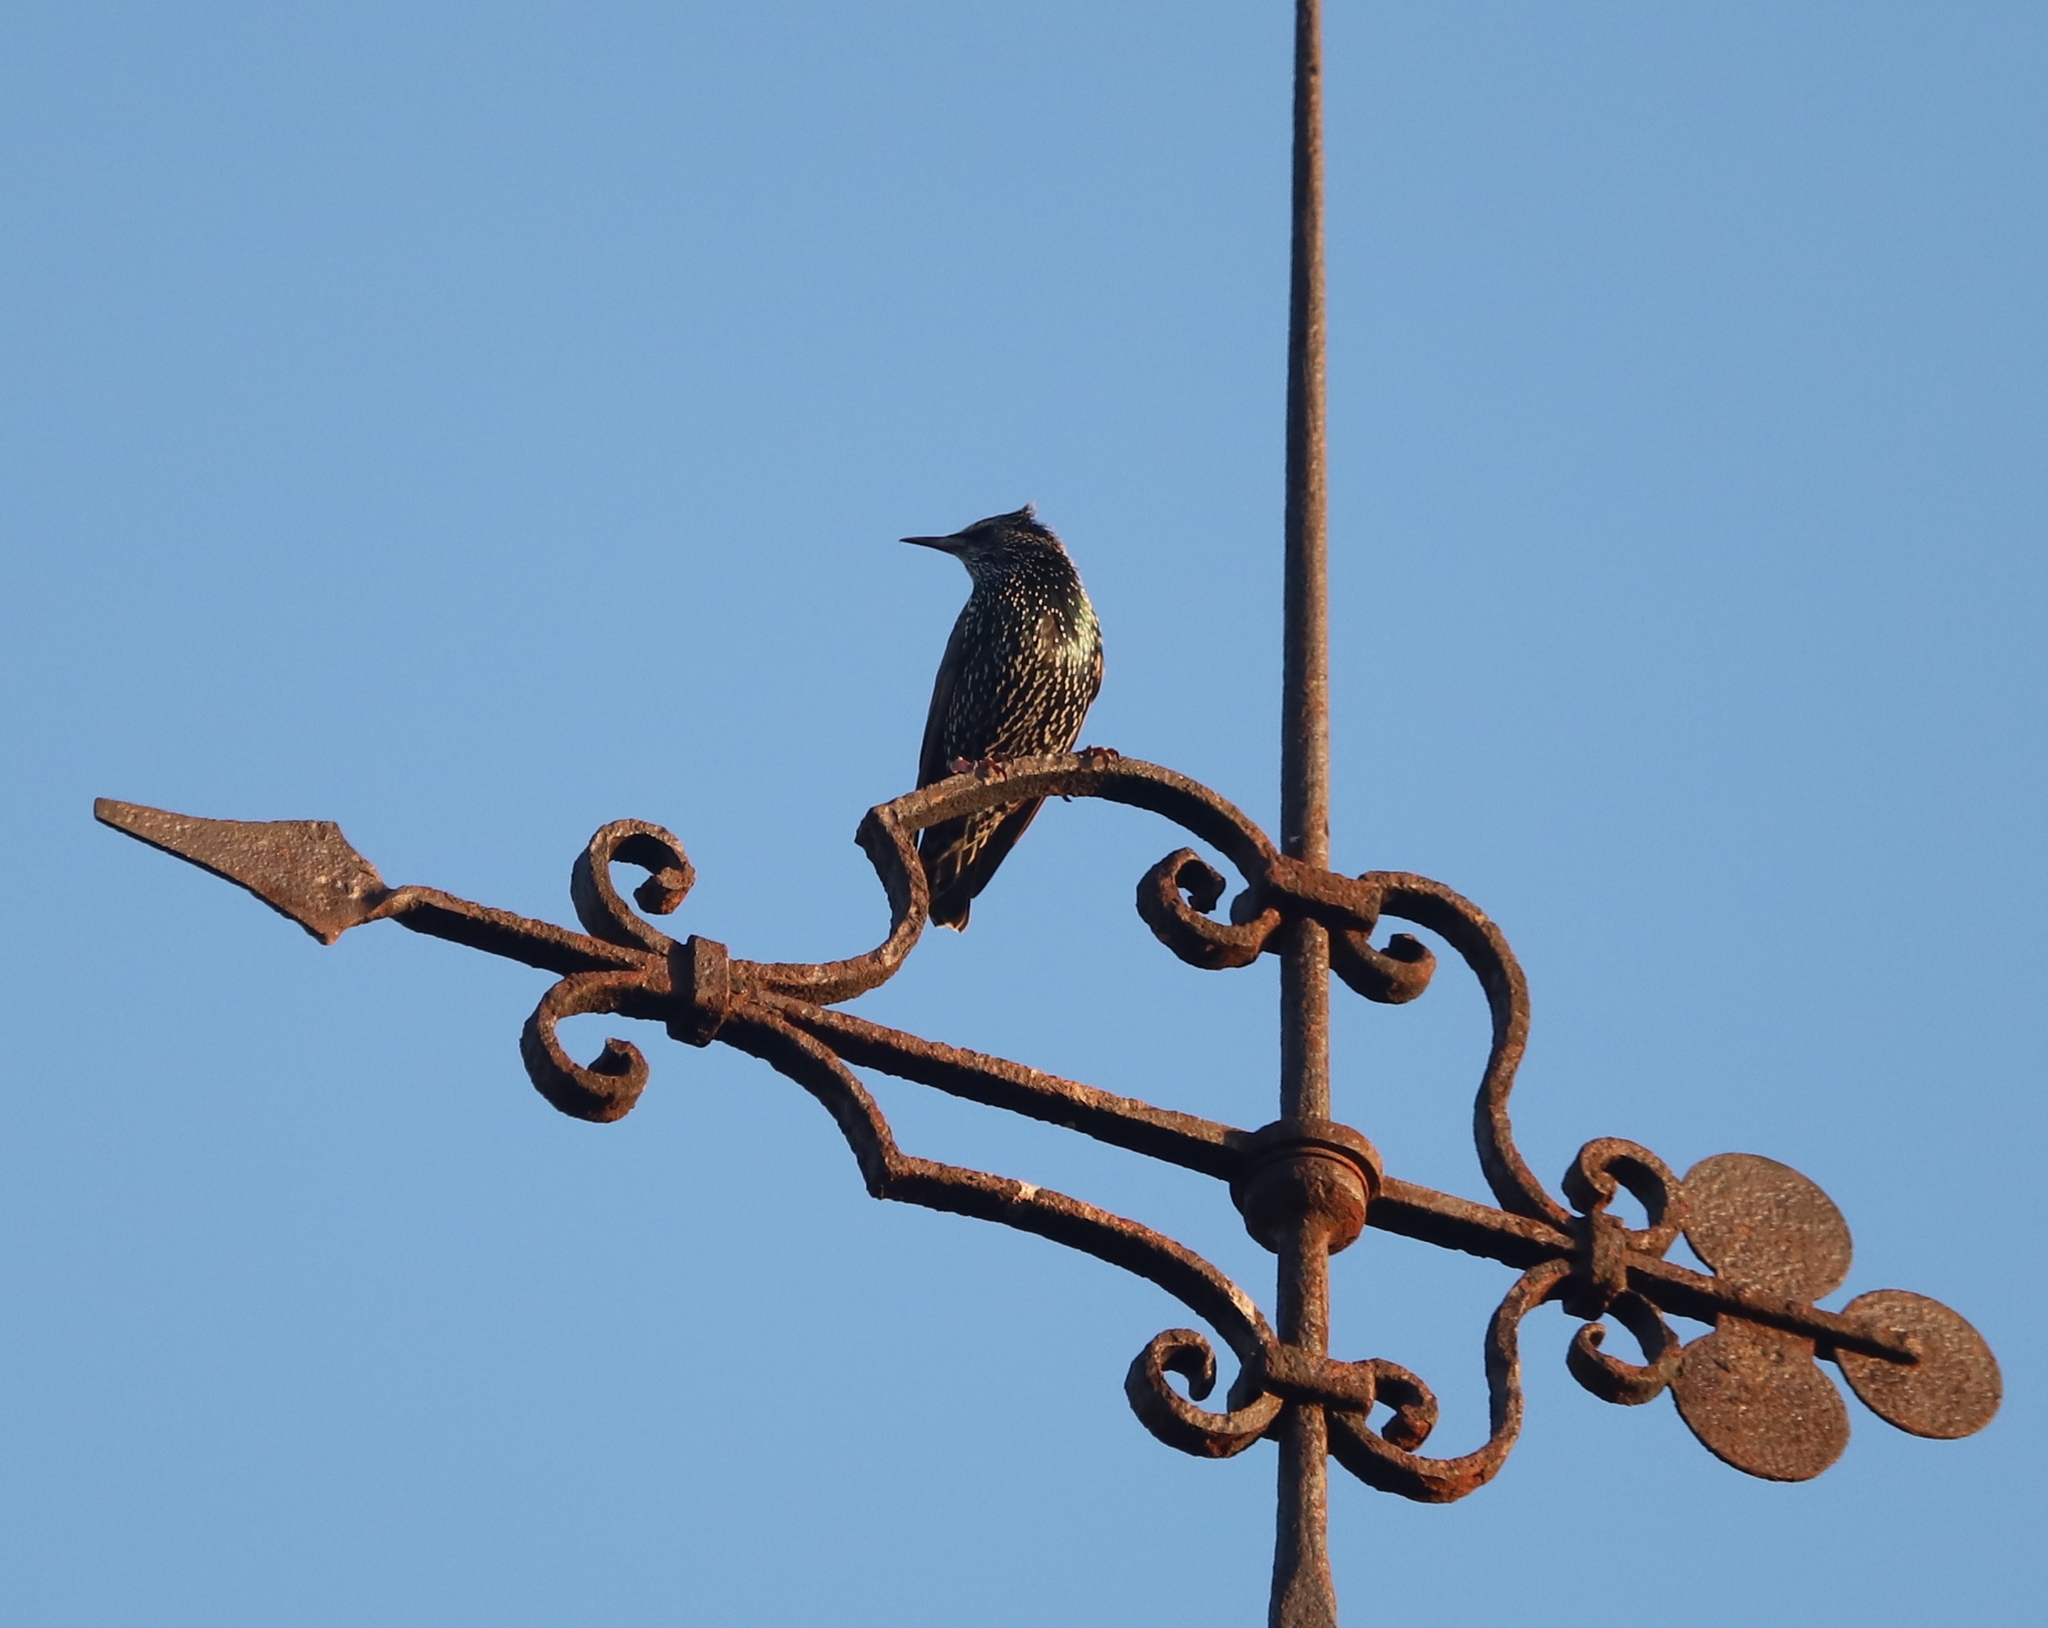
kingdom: Animalia
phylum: Chordata
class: Aves
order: Passeriformes
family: Sturnidae
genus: Sturnus
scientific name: Sturnus vulgaris
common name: Common starling
